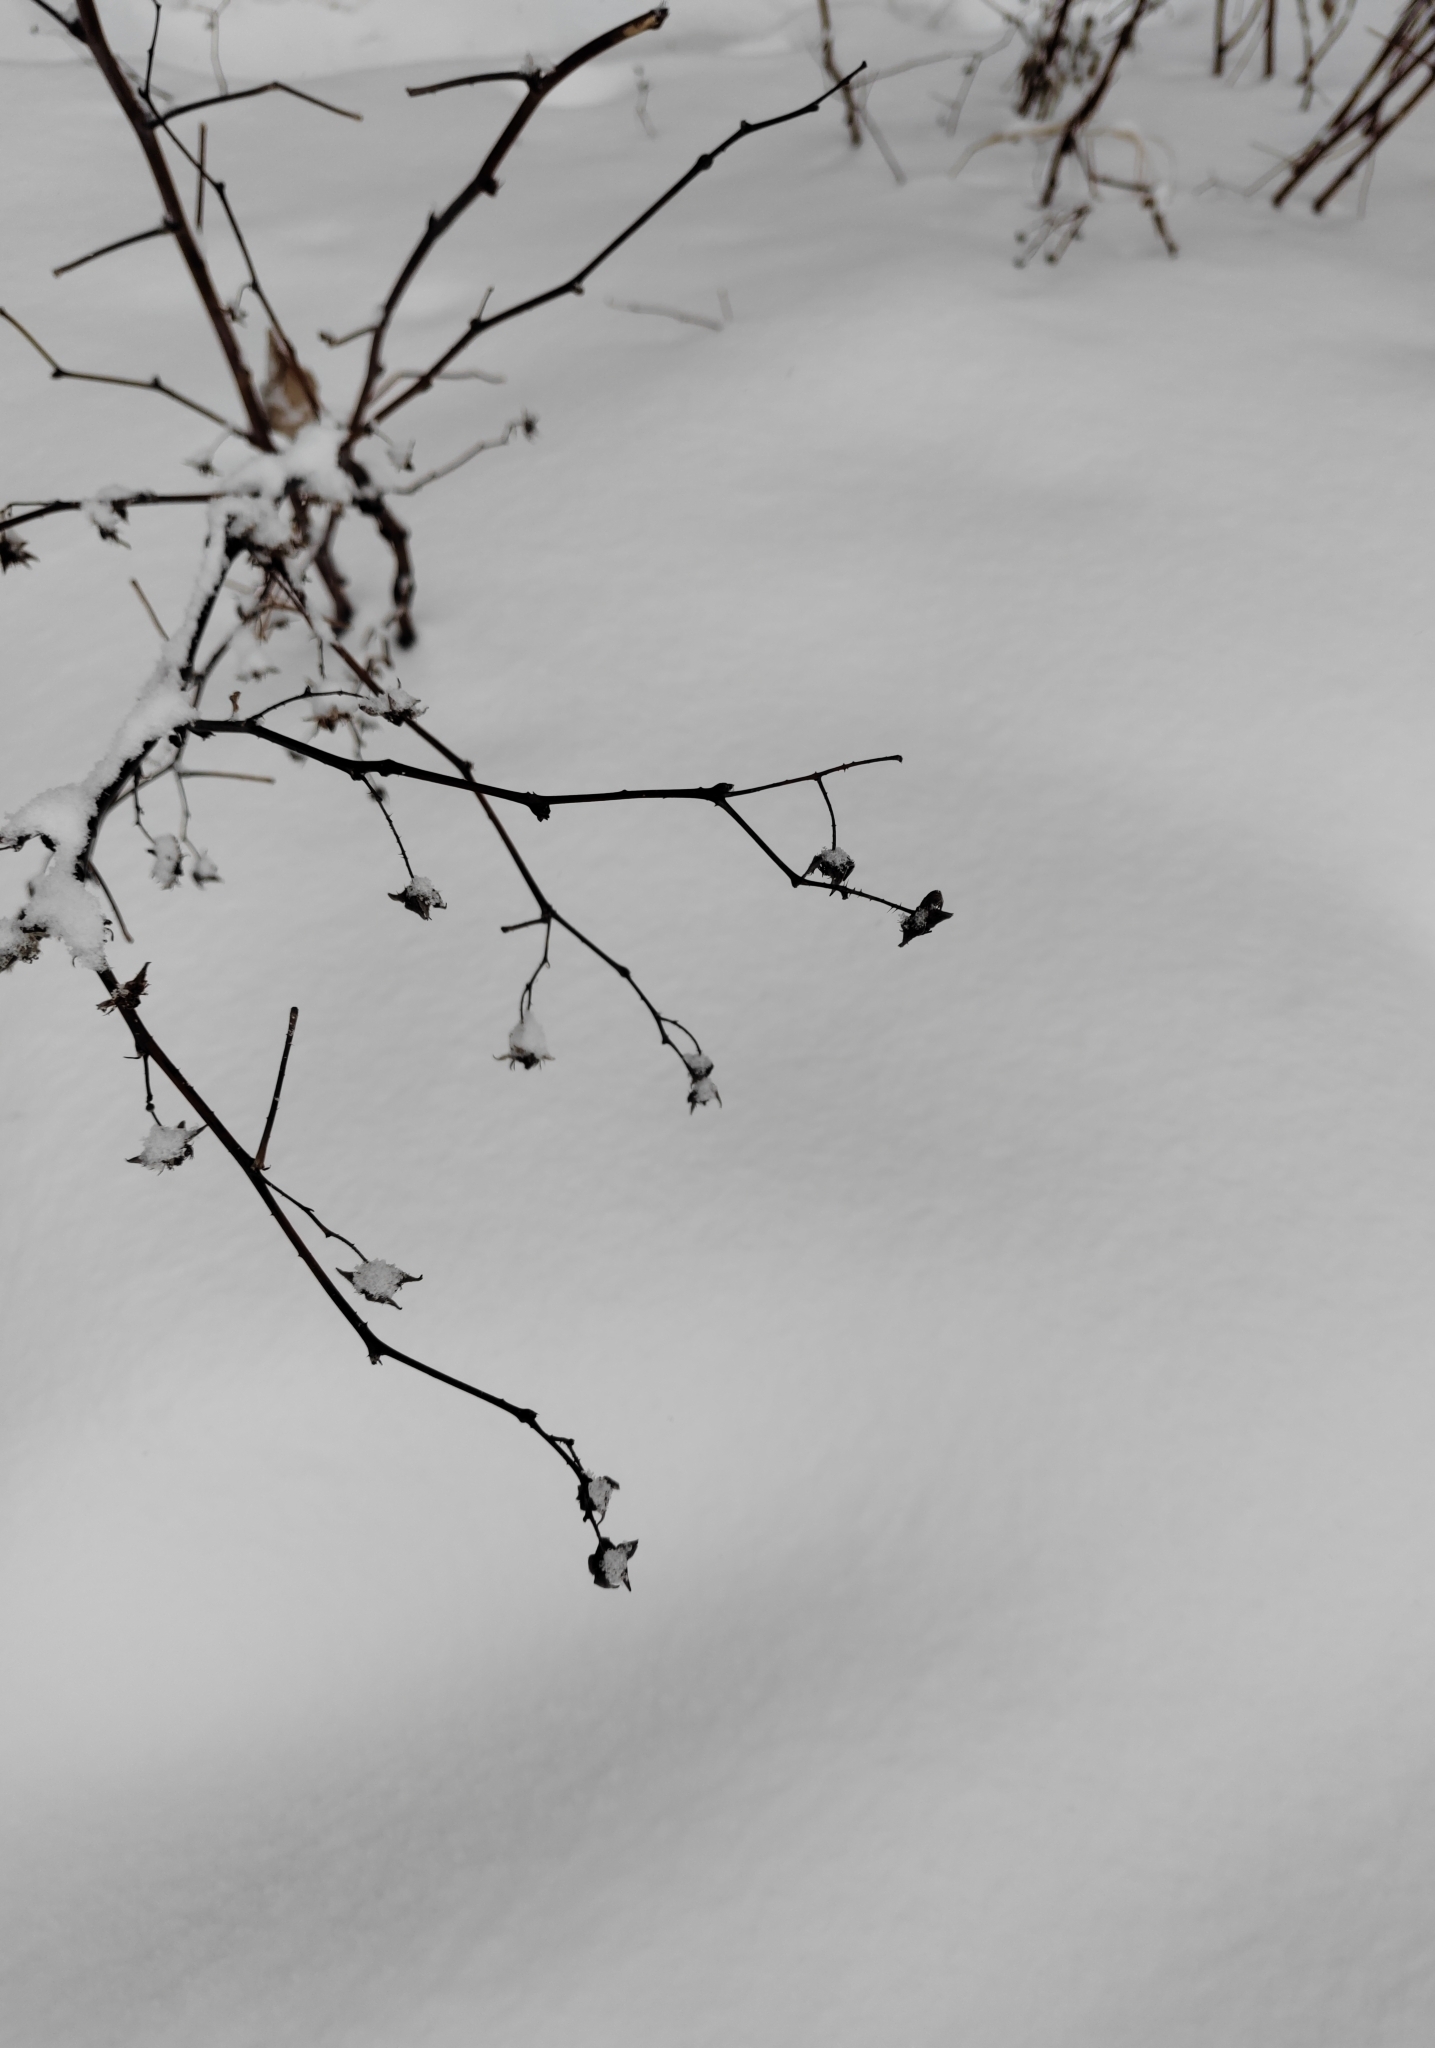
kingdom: Plantae
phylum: Tracheophyta
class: Magnoliopsida
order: Rosales
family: Rosaceae
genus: Rubus
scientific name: Rubus idaeus
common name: Raspberry
